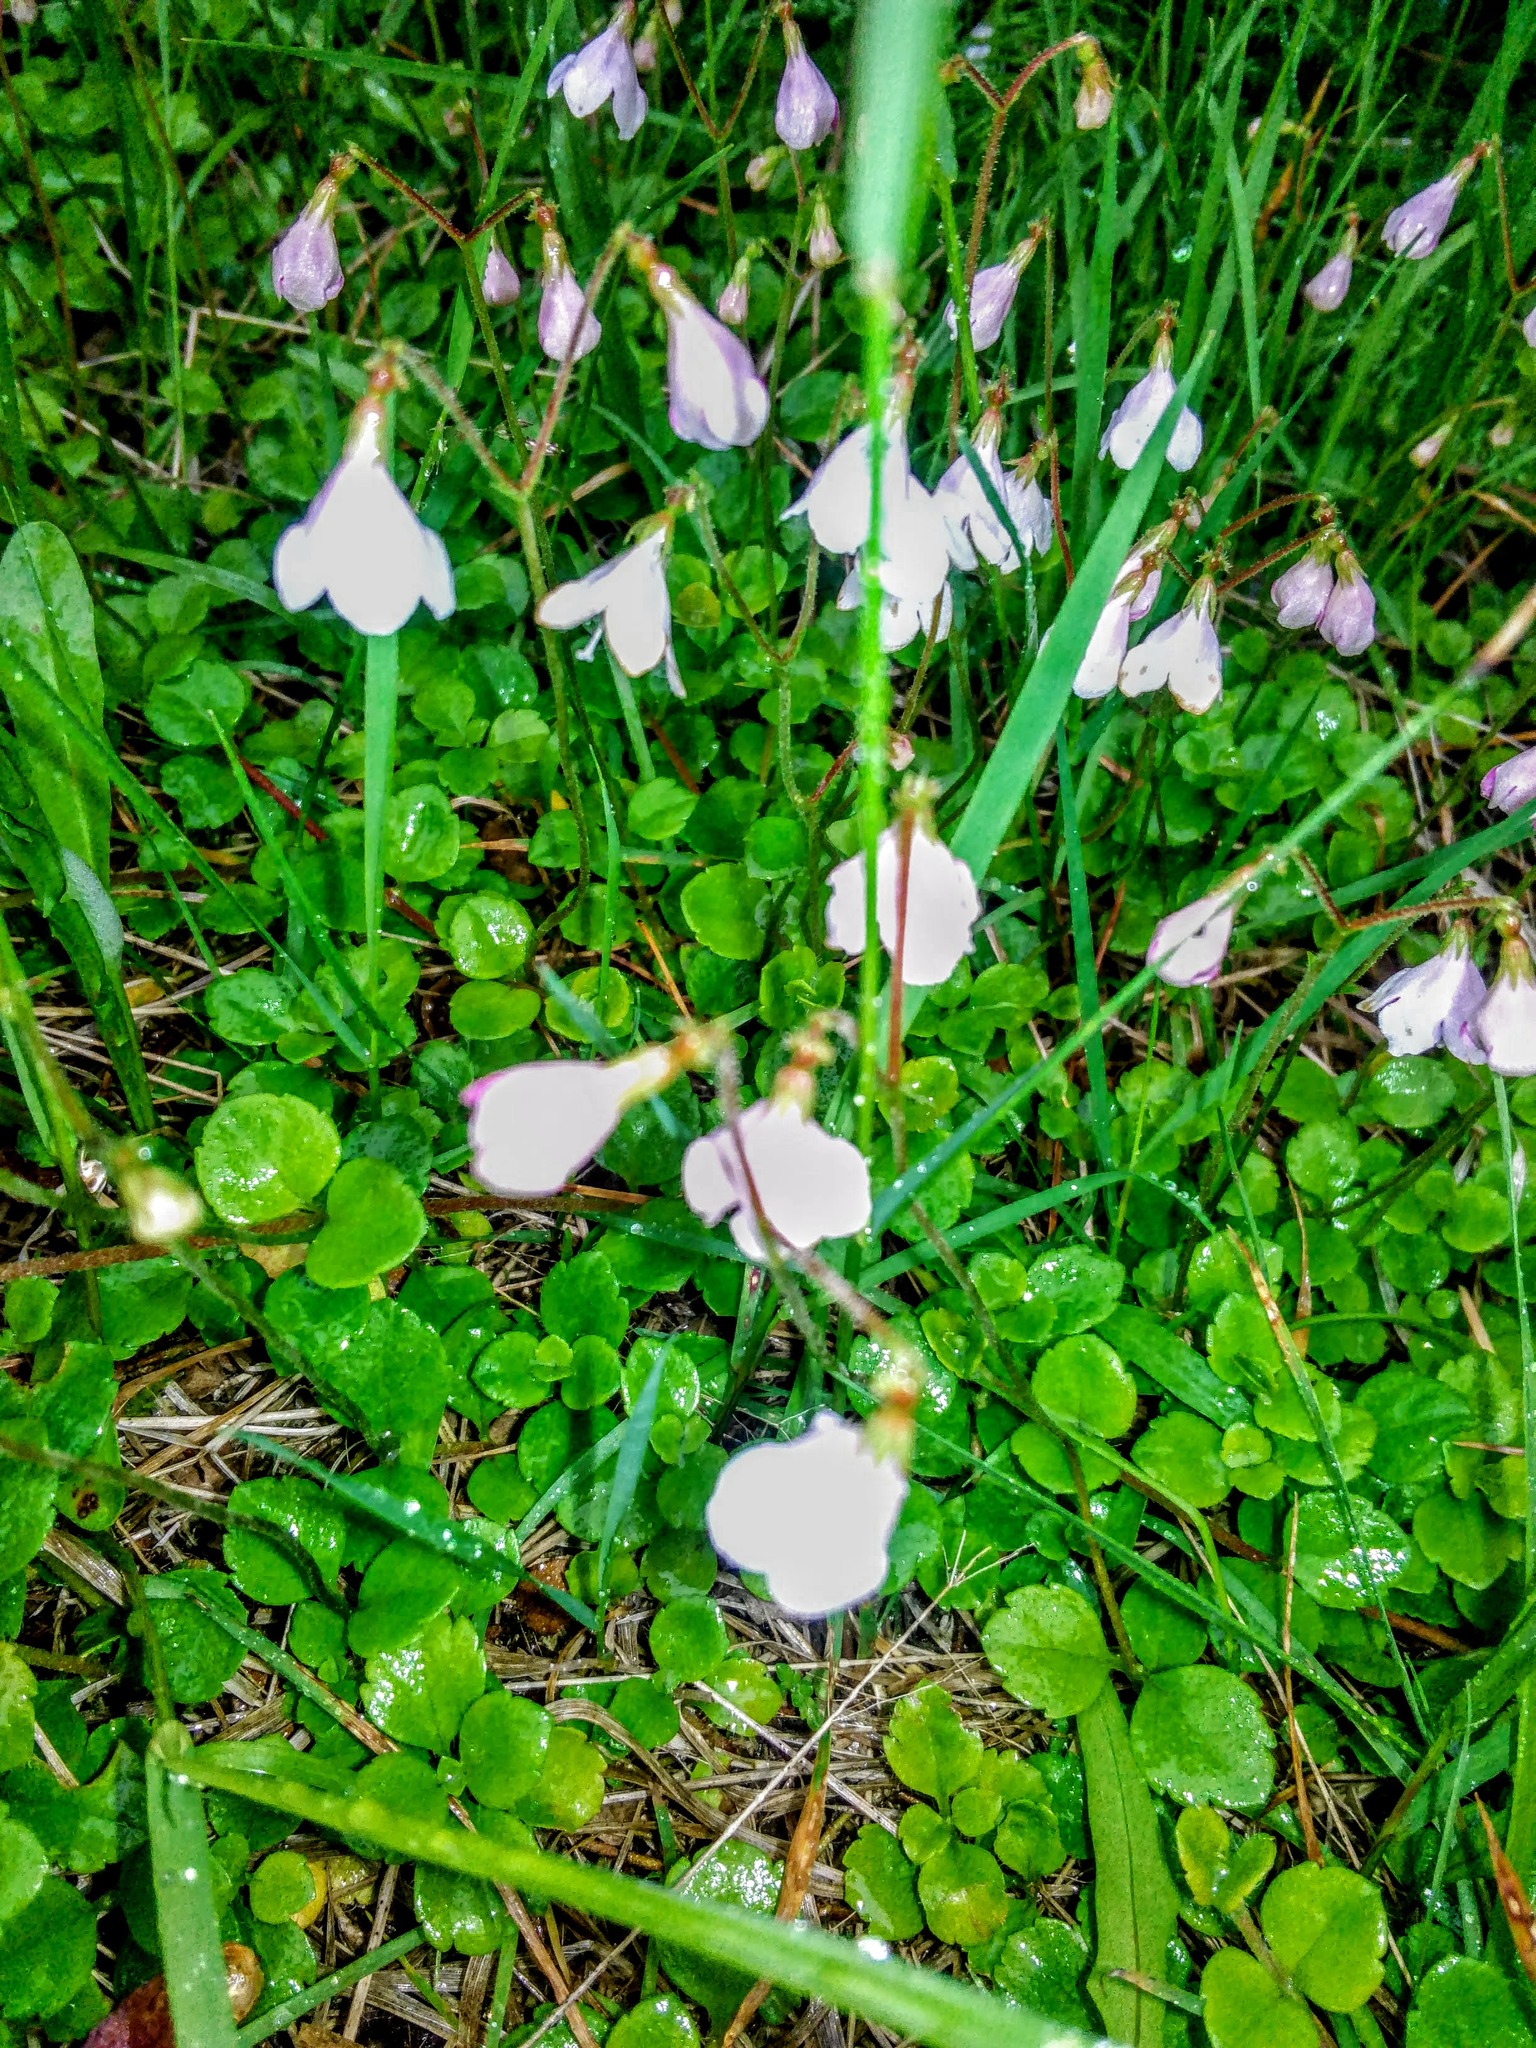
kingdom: Plantae
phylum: Tracheophyta
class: Magnoliopsida
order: Dipsacales
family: Caprifoliaceae
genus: Linnaea
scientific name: Linnaea borealis
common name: Twinflower
